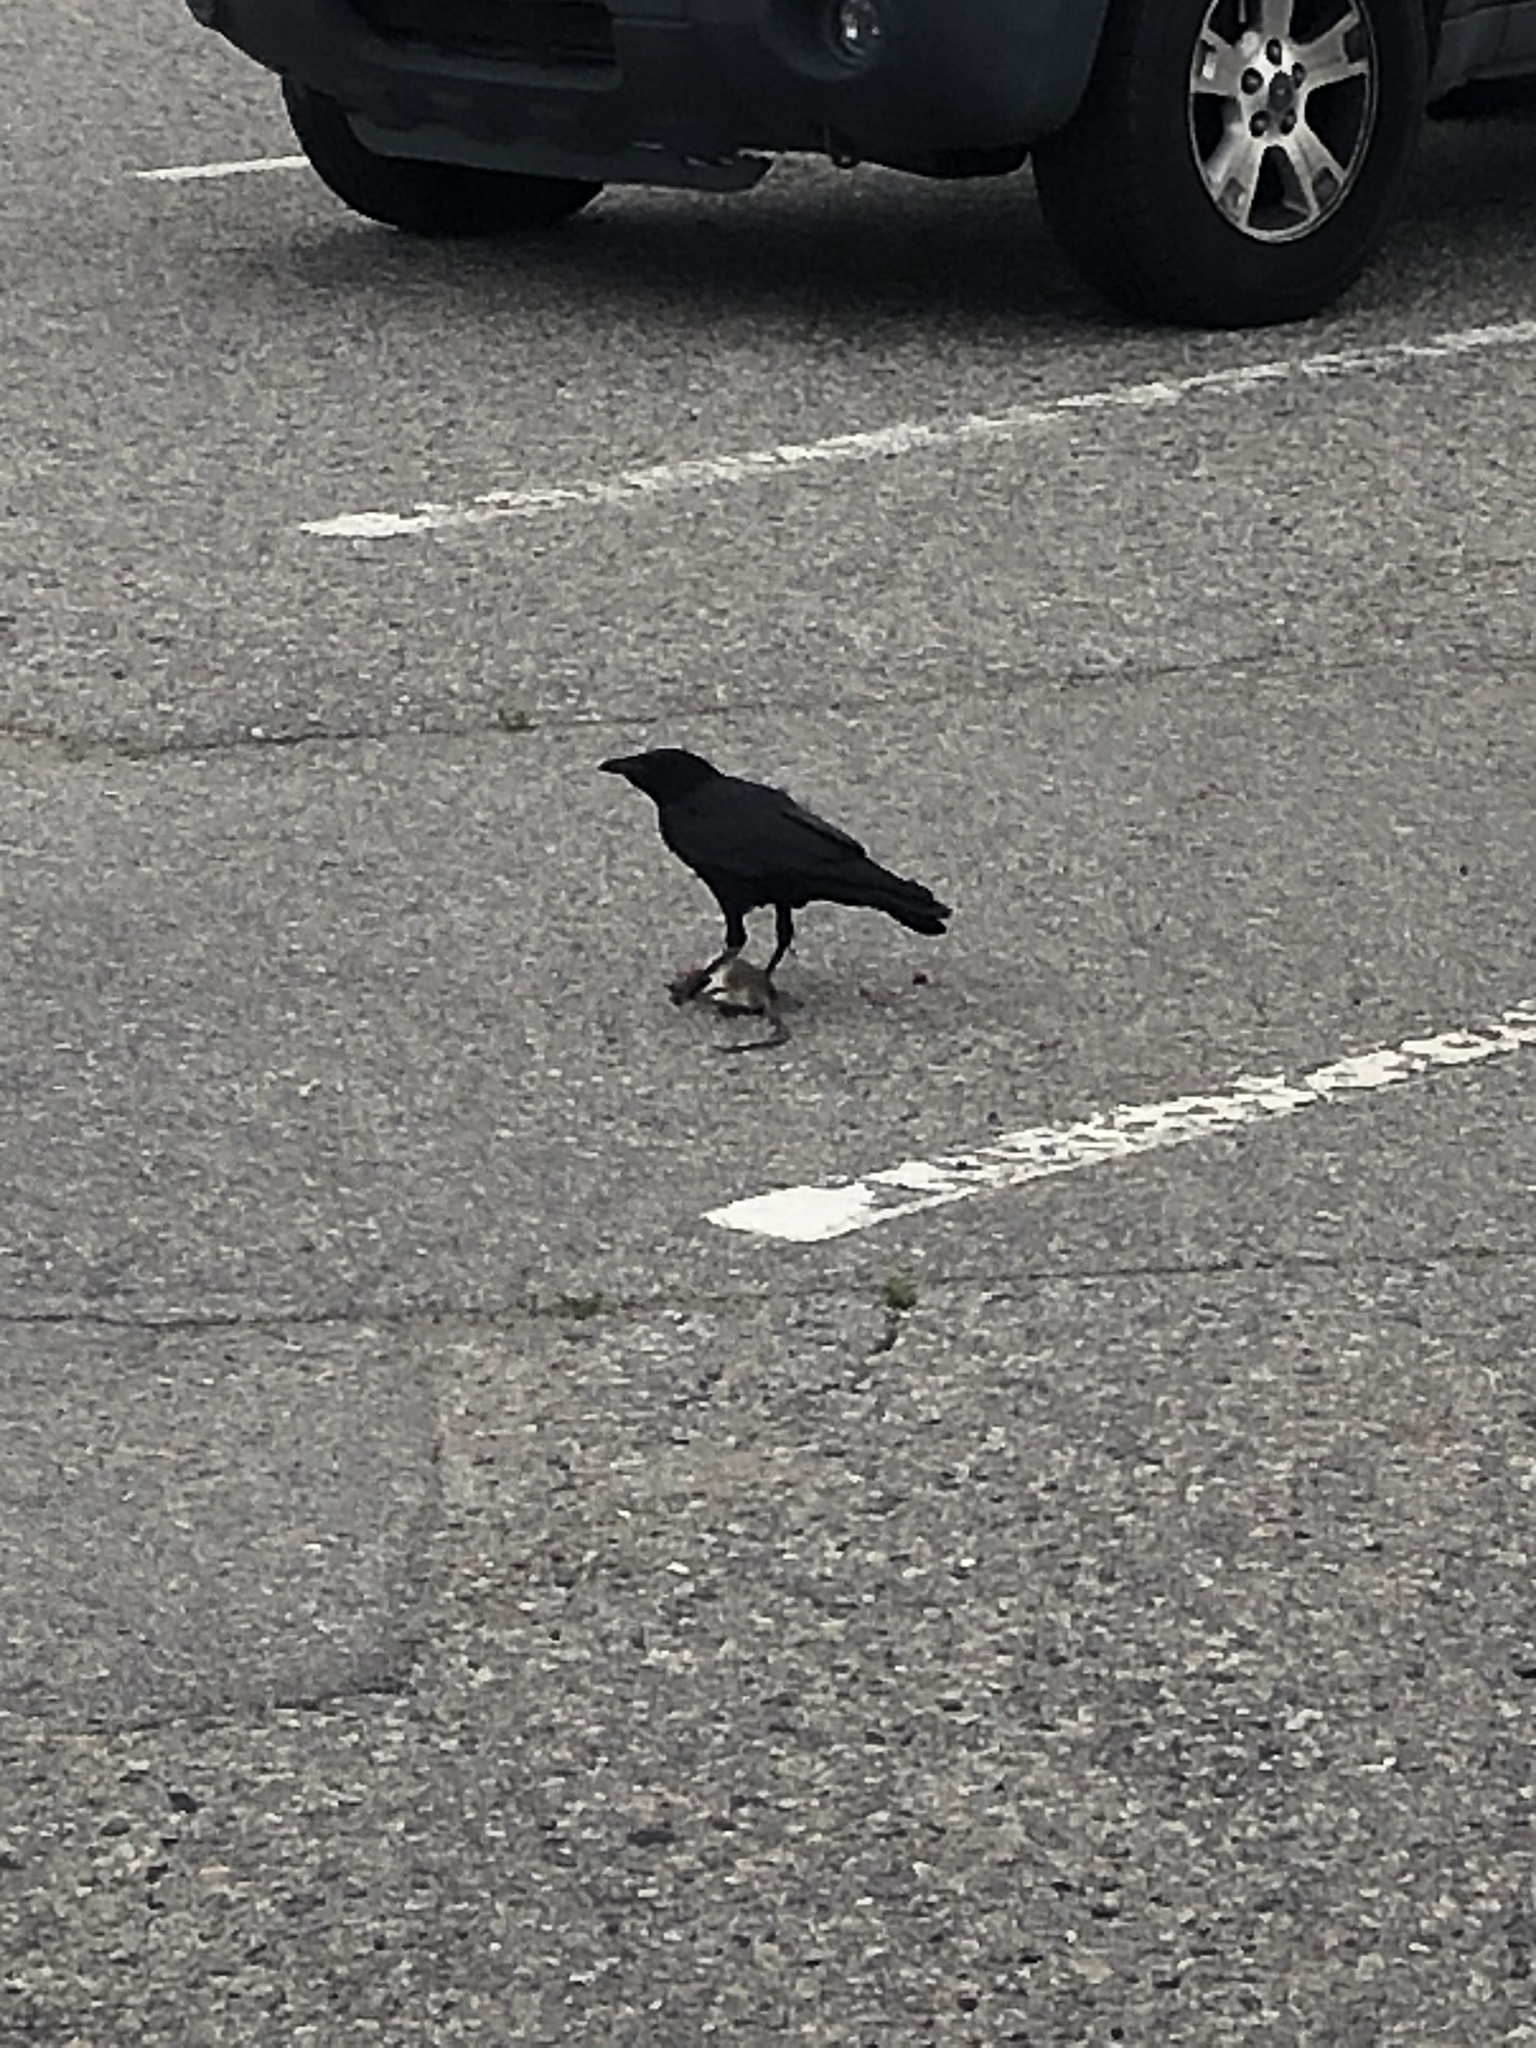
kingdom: Animalia
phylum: Chordata
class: Aves
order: Passeriformes
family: Corvidae
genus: Corvus
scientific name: Corvus brachyrhynchos
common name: American crow
